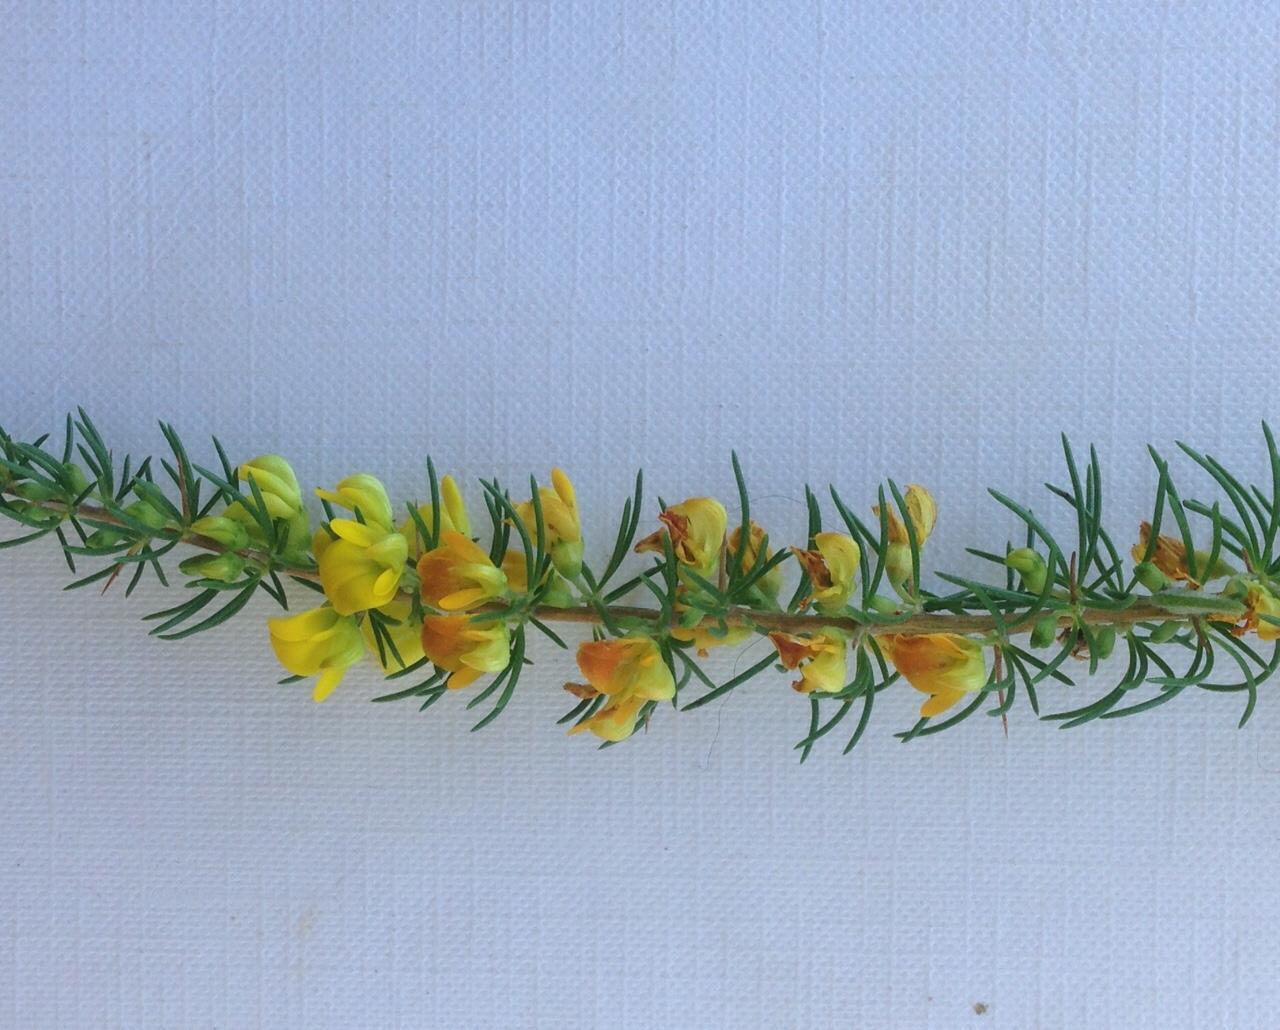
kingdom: Plantae
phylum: Tracheophyta
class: Magnoliopsida
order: Fabales
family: Fabaceae
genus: Aspalathus
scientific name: Aspalathus spinosa
